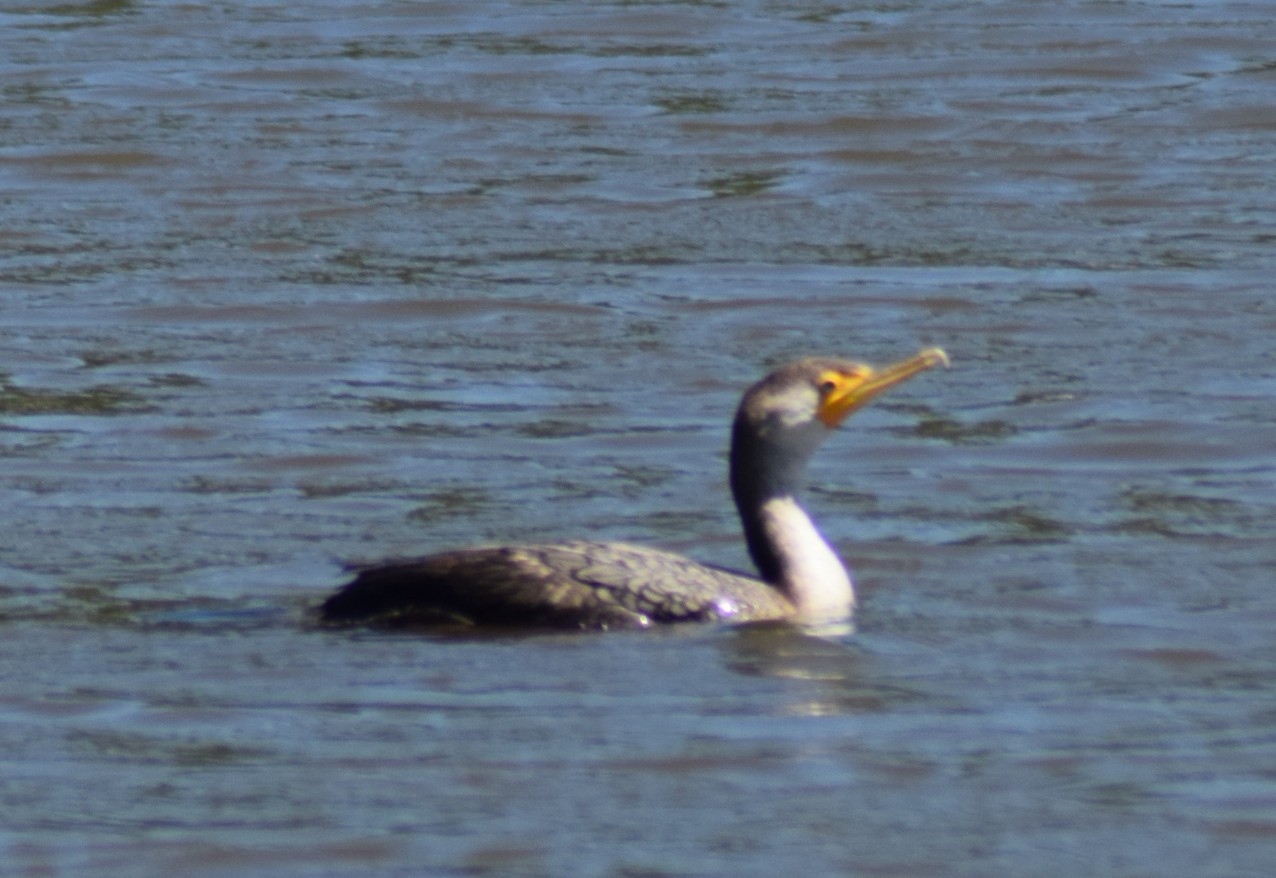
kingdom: Animalia
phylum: Chordata
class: Aves
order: Suliformes
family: Phalacrocoracidae
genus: Phalacrocorax
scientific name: Phalacrocorax auritus
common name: Double-crested cormorant
